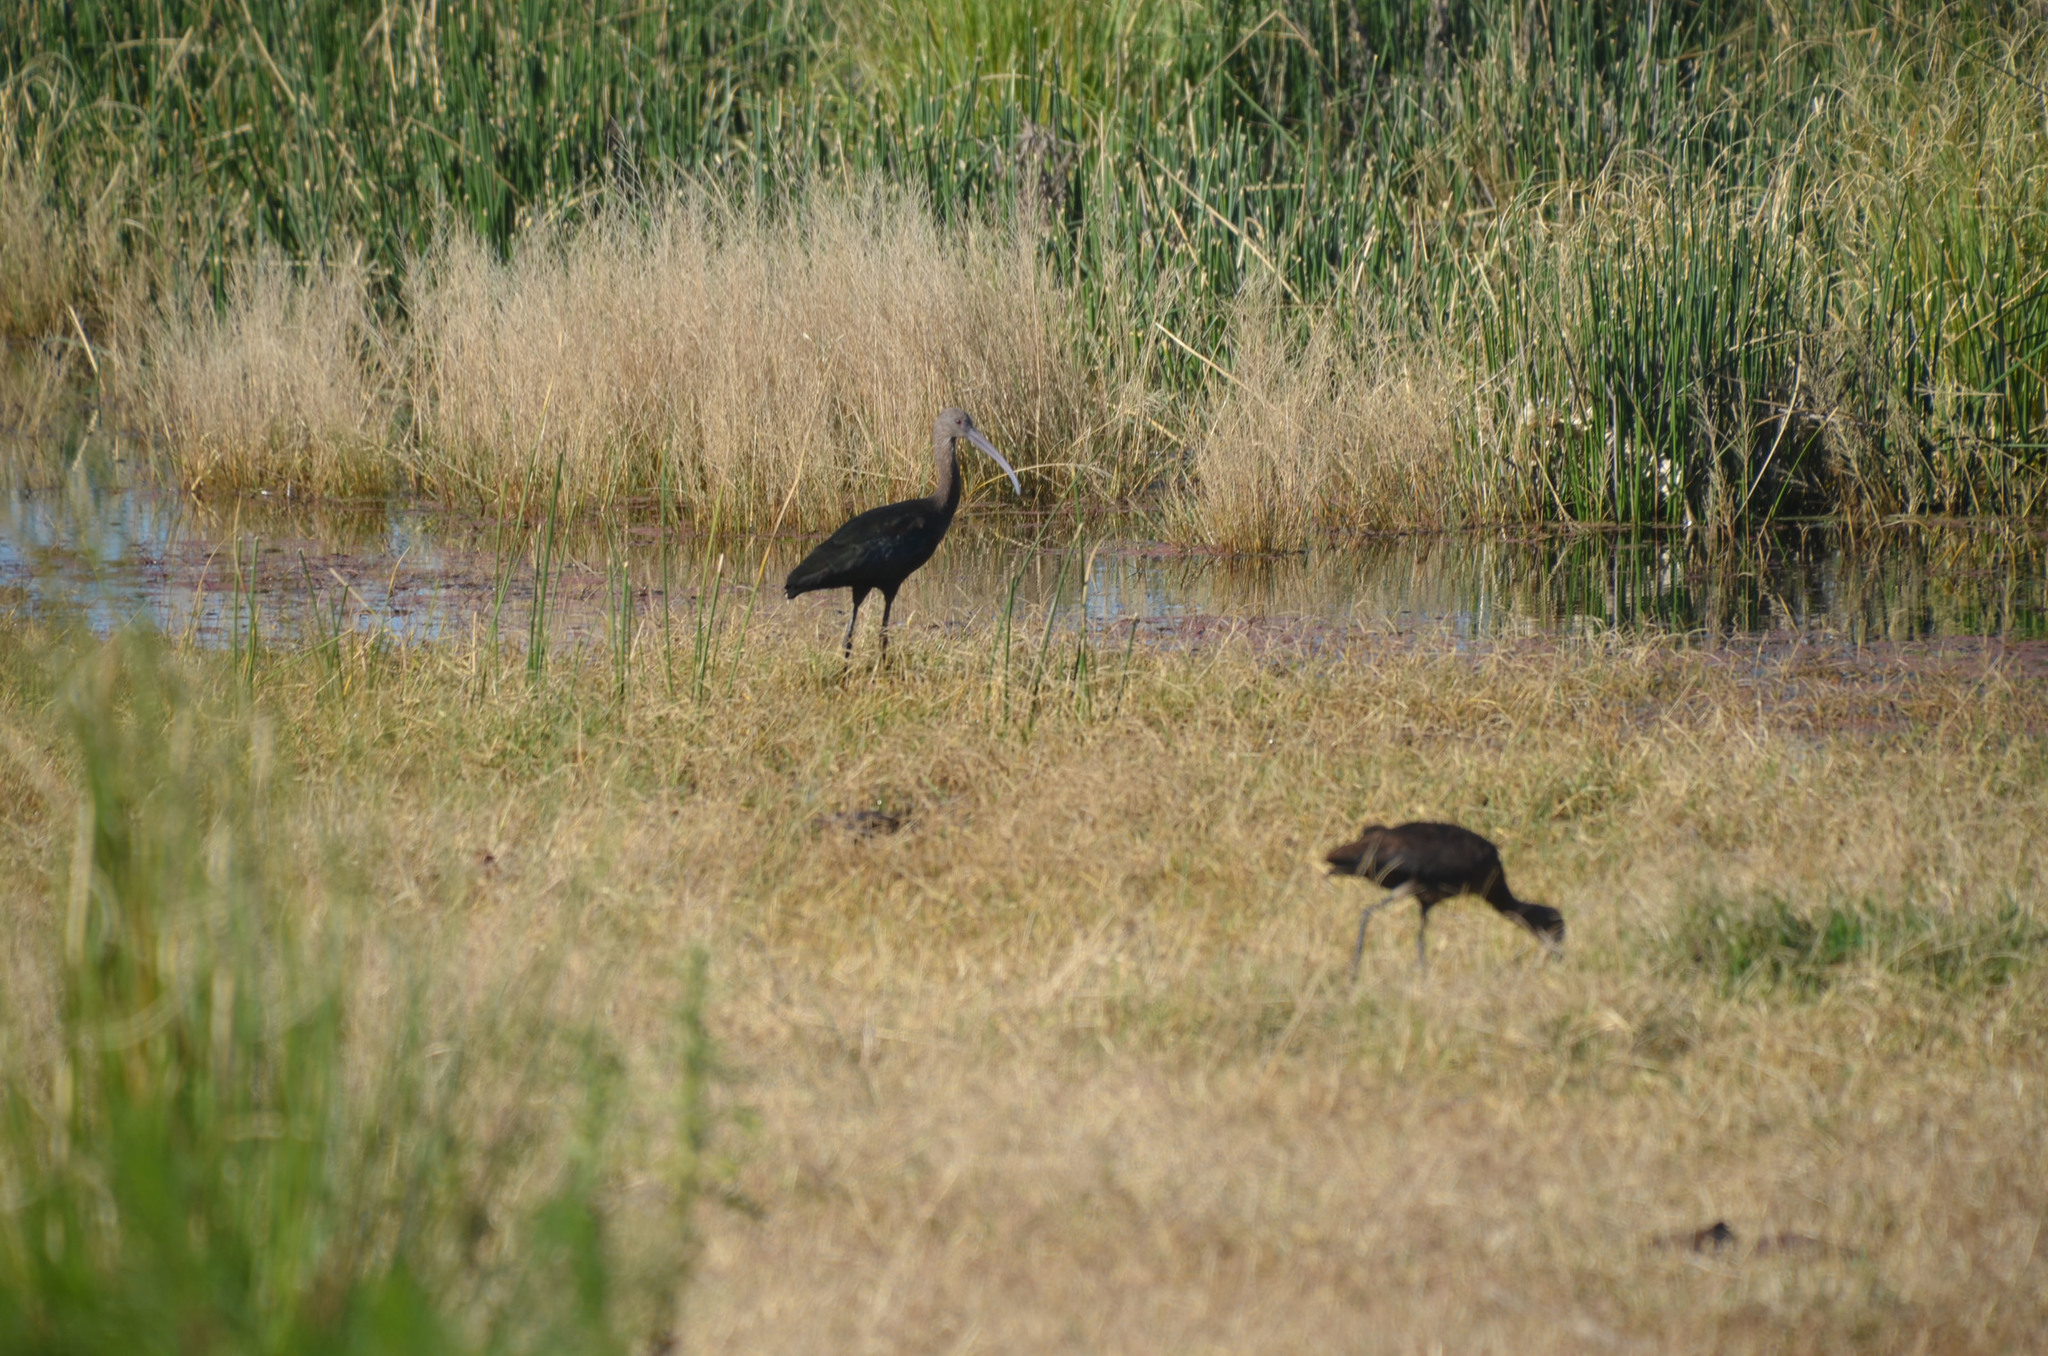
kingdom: Animalia
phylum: Chordata
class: Aves
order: Pelecaniformes
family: Threskiornithidae
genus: Plegadis
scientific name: Plegadis chihi
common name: White-faced ibis
